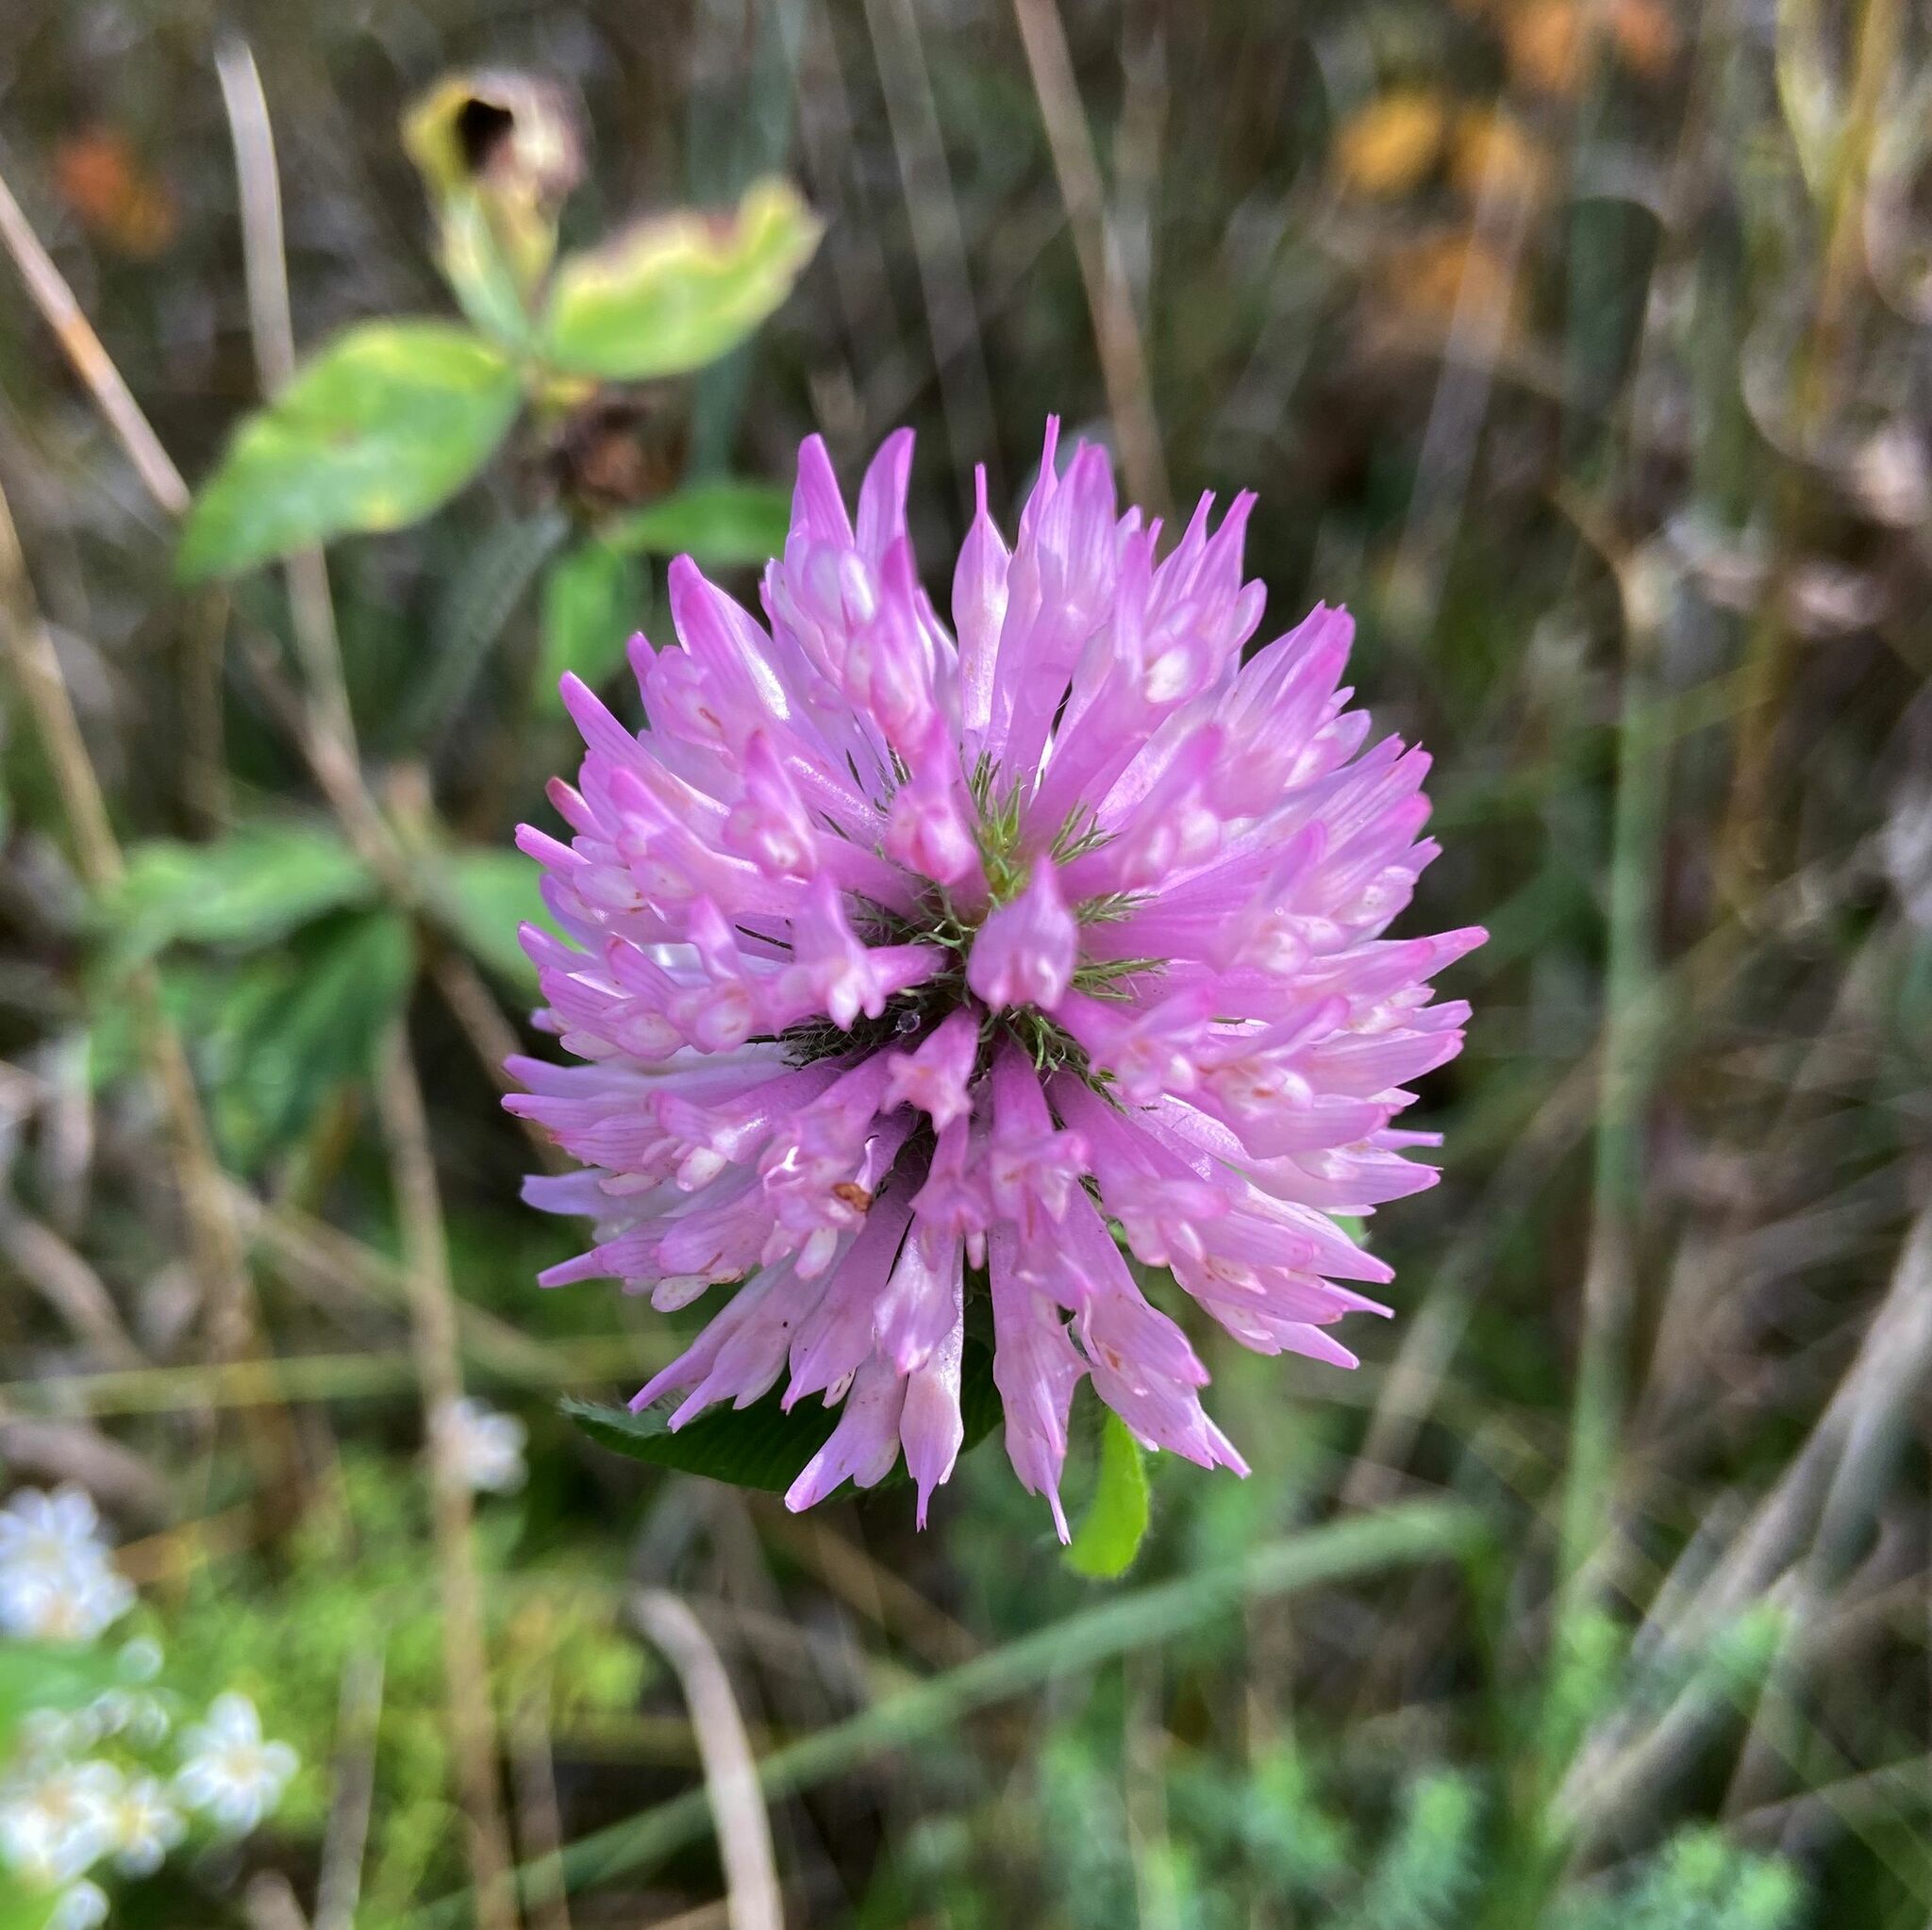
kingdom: Plantae
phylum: Tracheophyta
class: Magnoliopsida
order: Fabales
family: Fabaceae
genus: Trifolium
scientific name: Trifolium pratense
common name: Red clover
